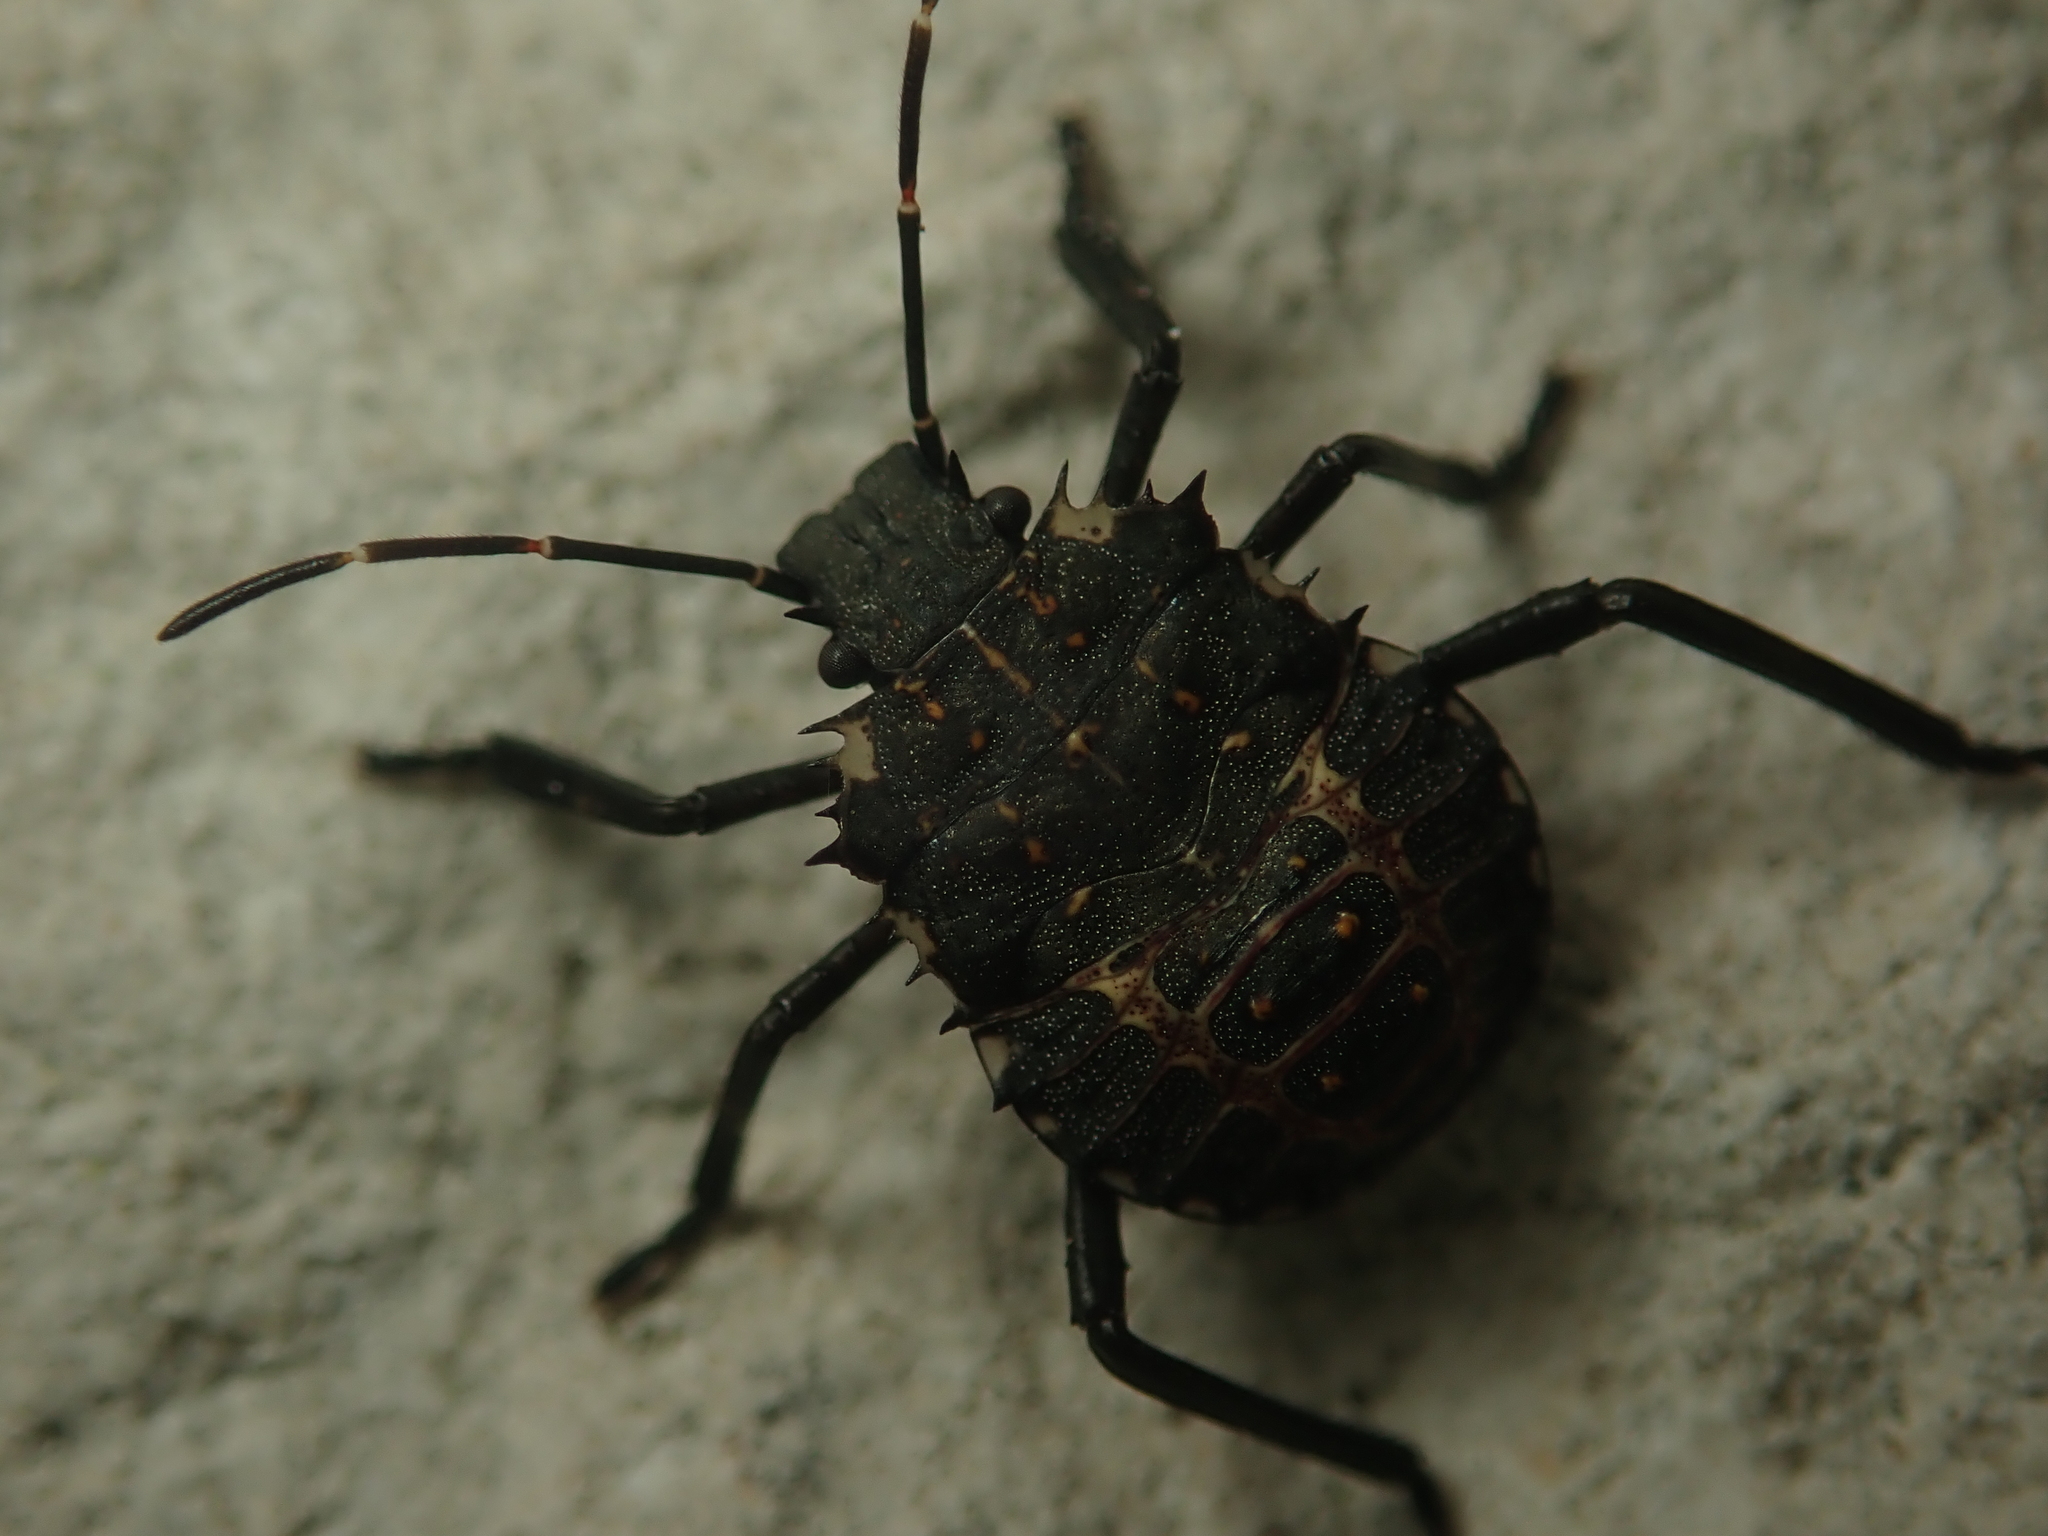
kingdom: Animalia
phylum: Arthropoda
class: Insecta
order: Hemiptera
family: Pentatomidae
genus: Halyomorpha
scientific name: Halyomorpha halys
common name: Brown marmorated stink bug
